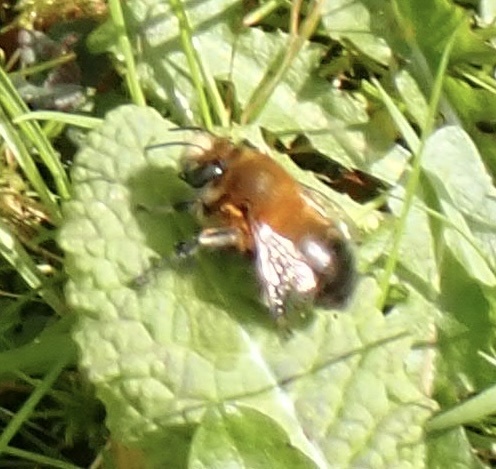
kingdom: Animalia
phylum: Arthropoda
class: Insecta
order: Hymenoptera
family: Apidae
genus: Anthophora
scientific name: Anthophora plumipes
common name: Hairy-footed flower bee
